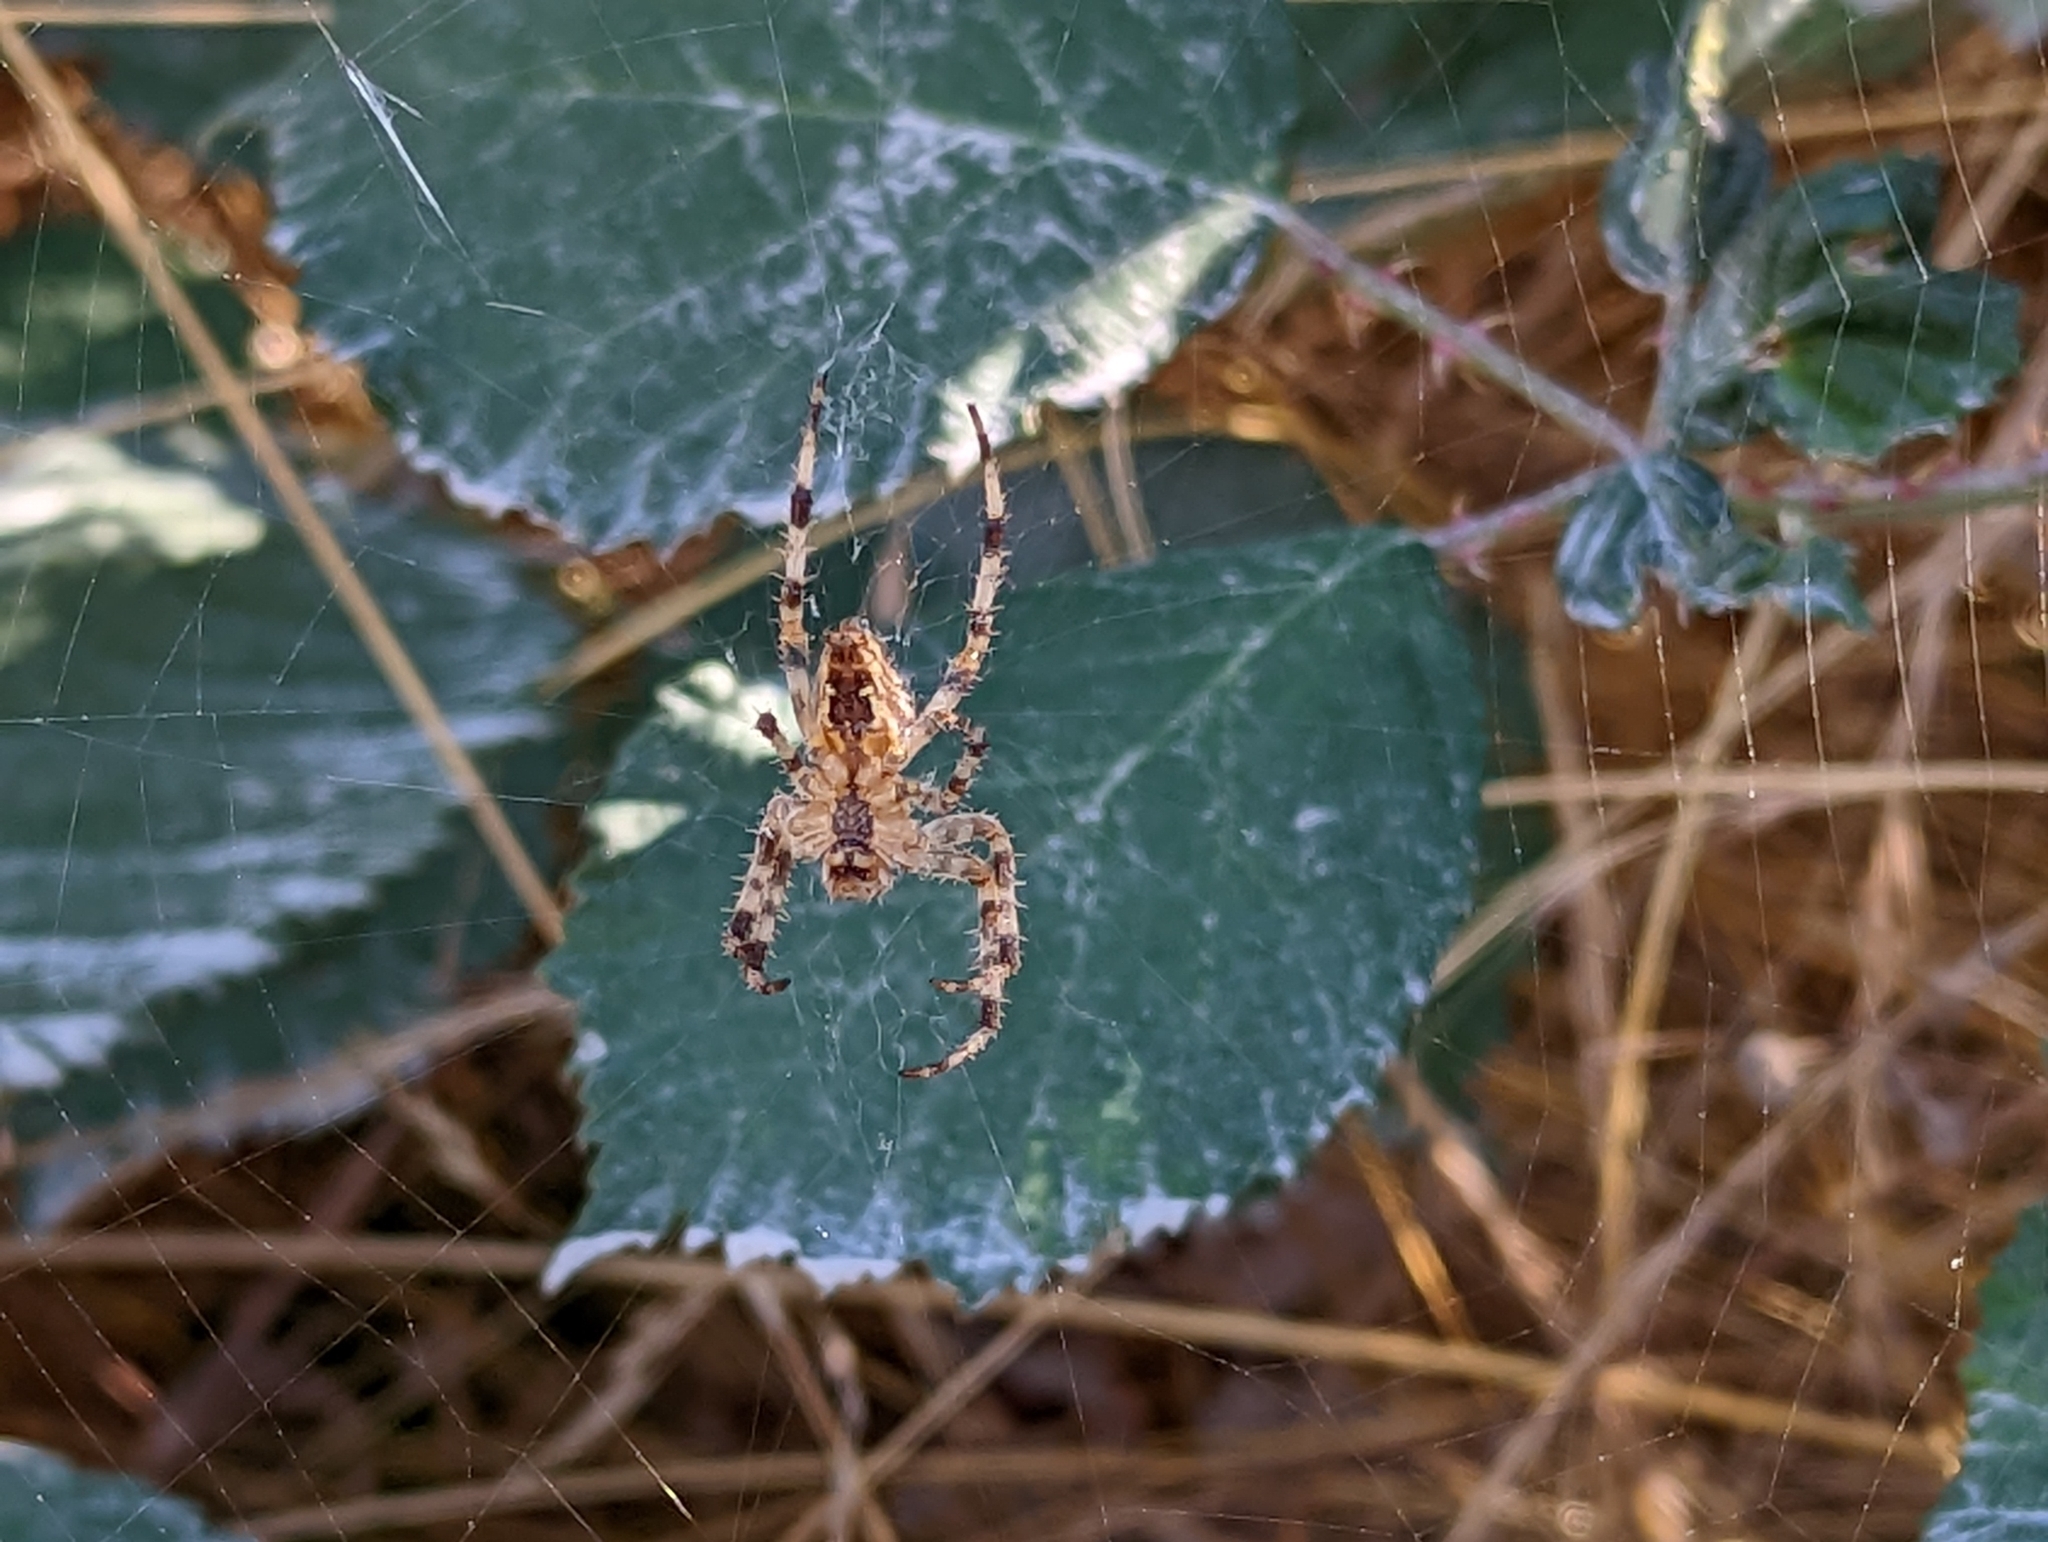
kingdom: Animalia
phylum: Arthropoda
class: Arachnida
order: Araneae
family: Araneidae
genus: Araneus
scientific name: Araneus diadematus
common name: Cross orbweaver
